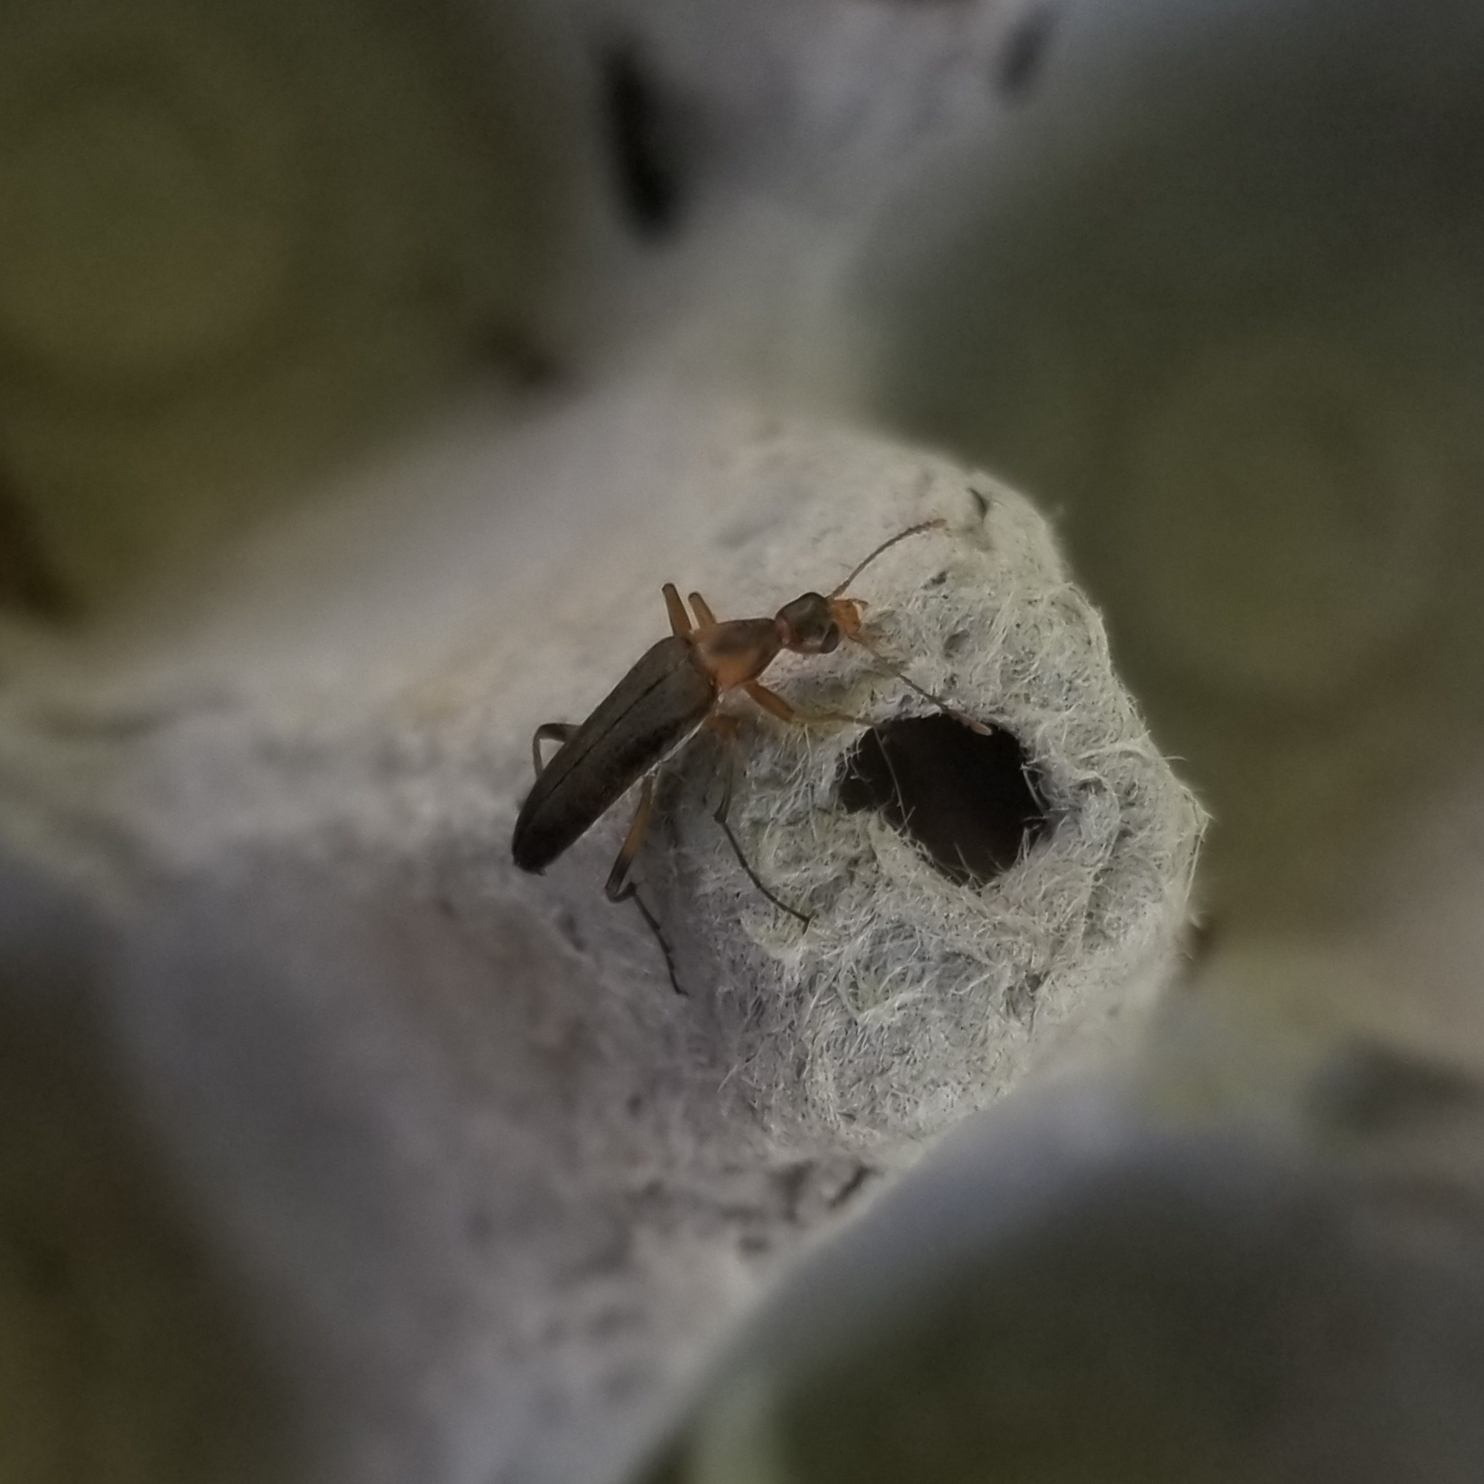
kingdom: Animalia
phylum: Arthropoda
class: Insecta
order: Coleoptera
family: Stenotrachelidae
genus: Cephaloon
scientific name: Cephaloon lepturides
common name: False leptura beetle
